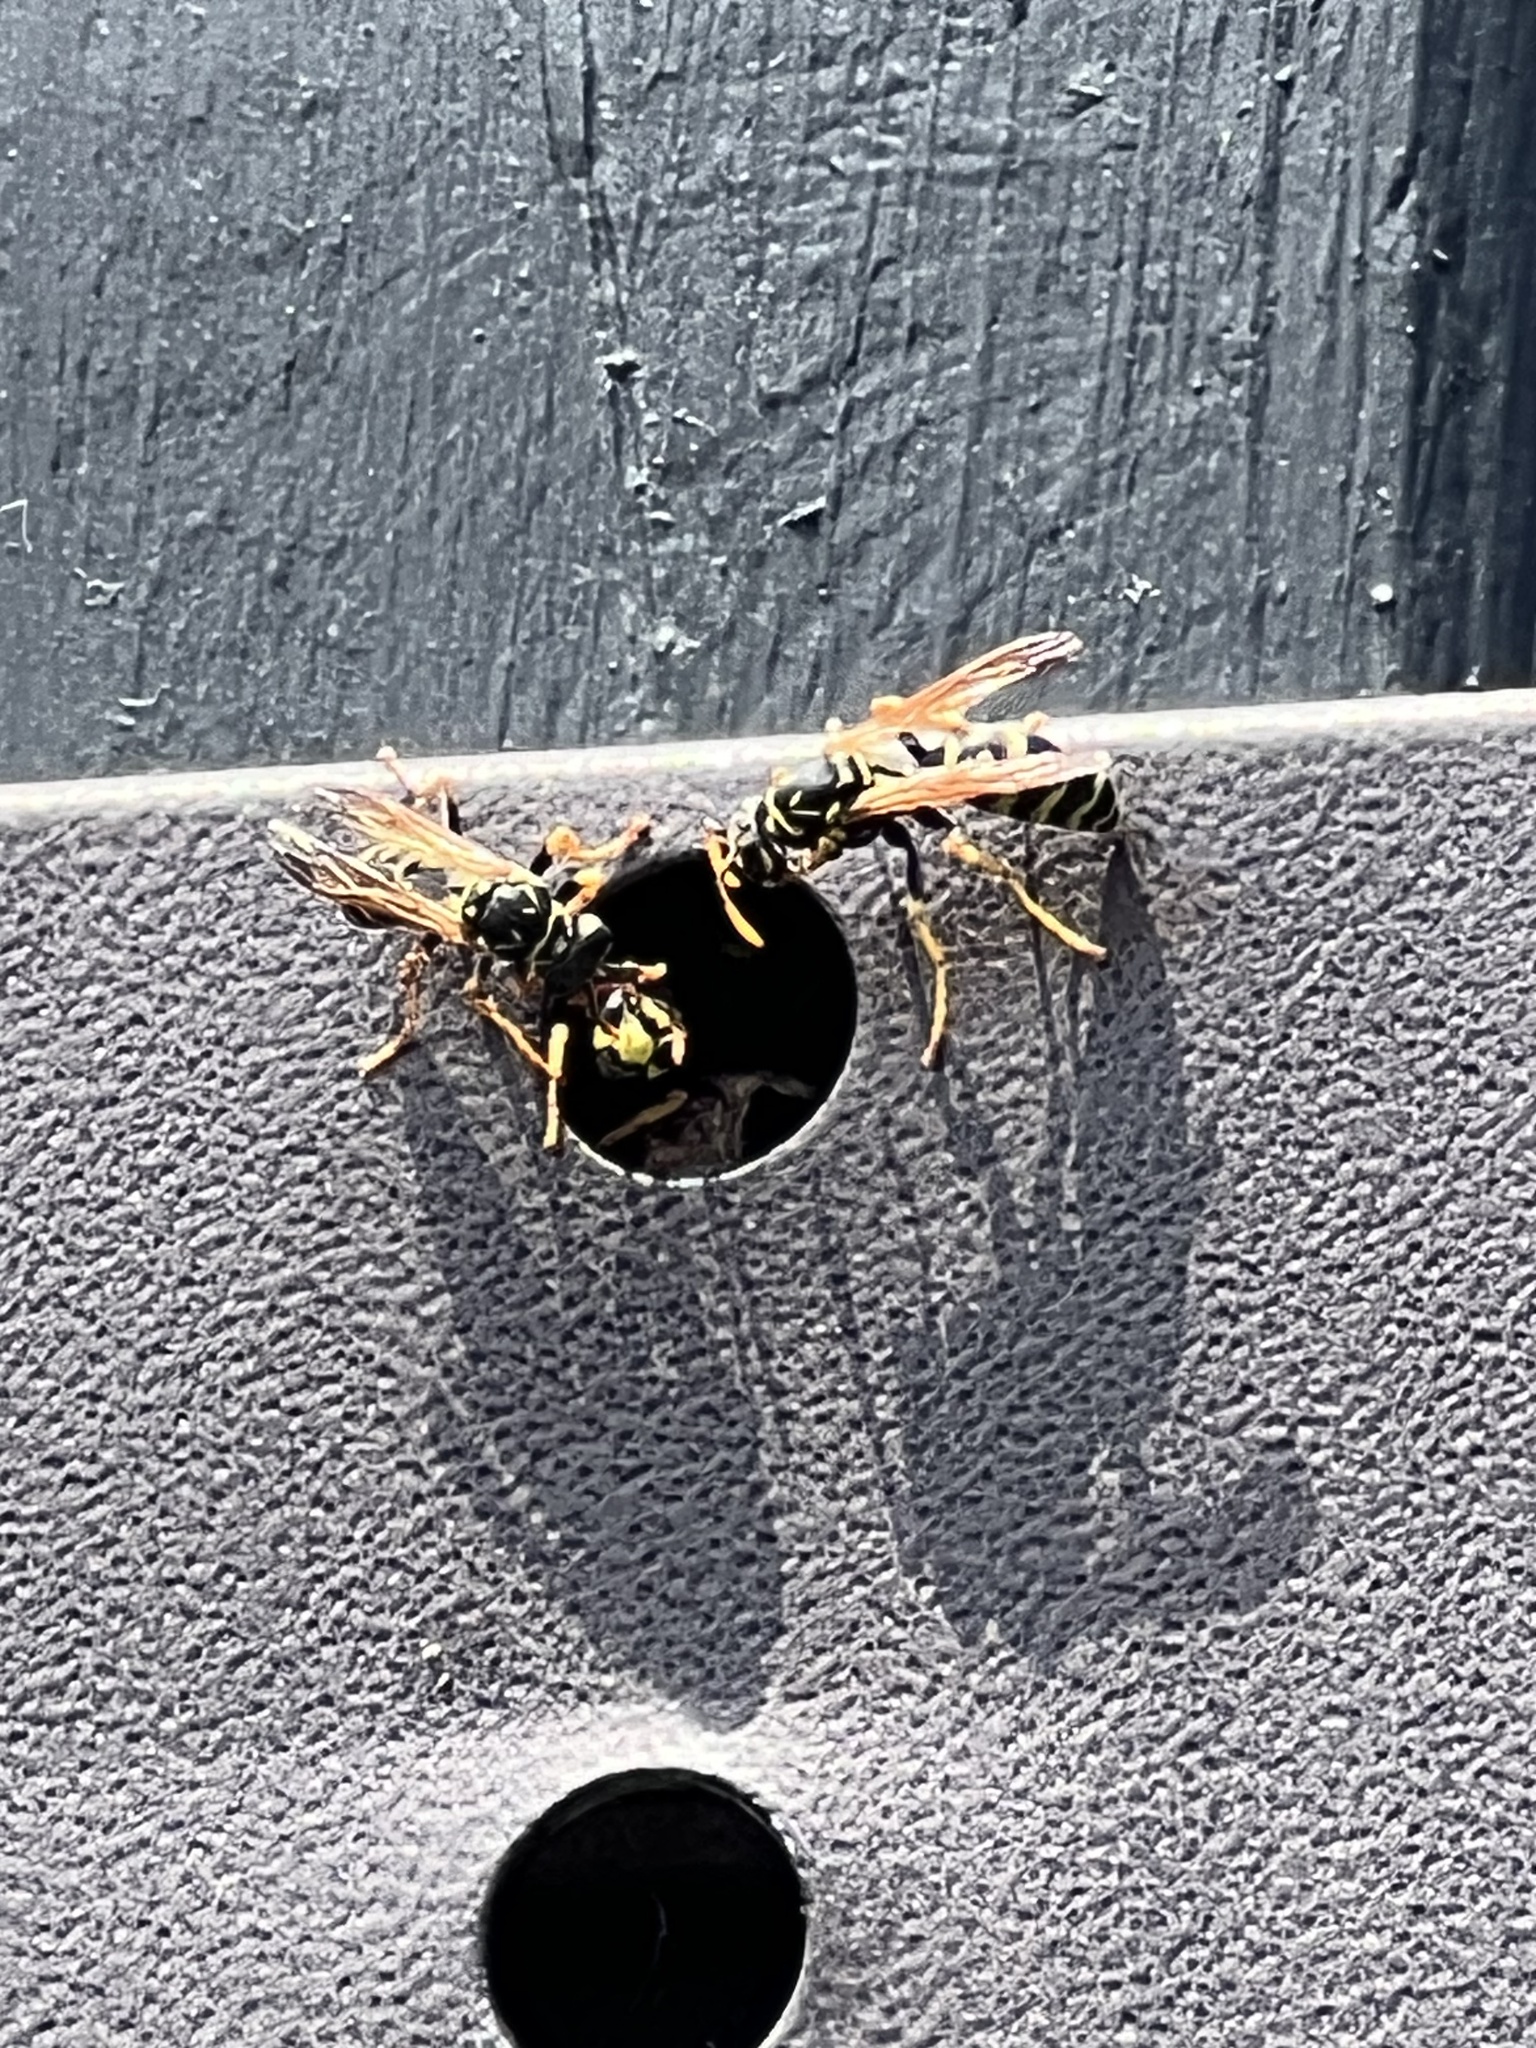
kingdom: Animalia
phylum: Arthropoda
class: Insecta
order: Hymenoptera
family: Eumenidae
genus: Polistes
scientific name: Polistes dominula
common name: Paper wasp
